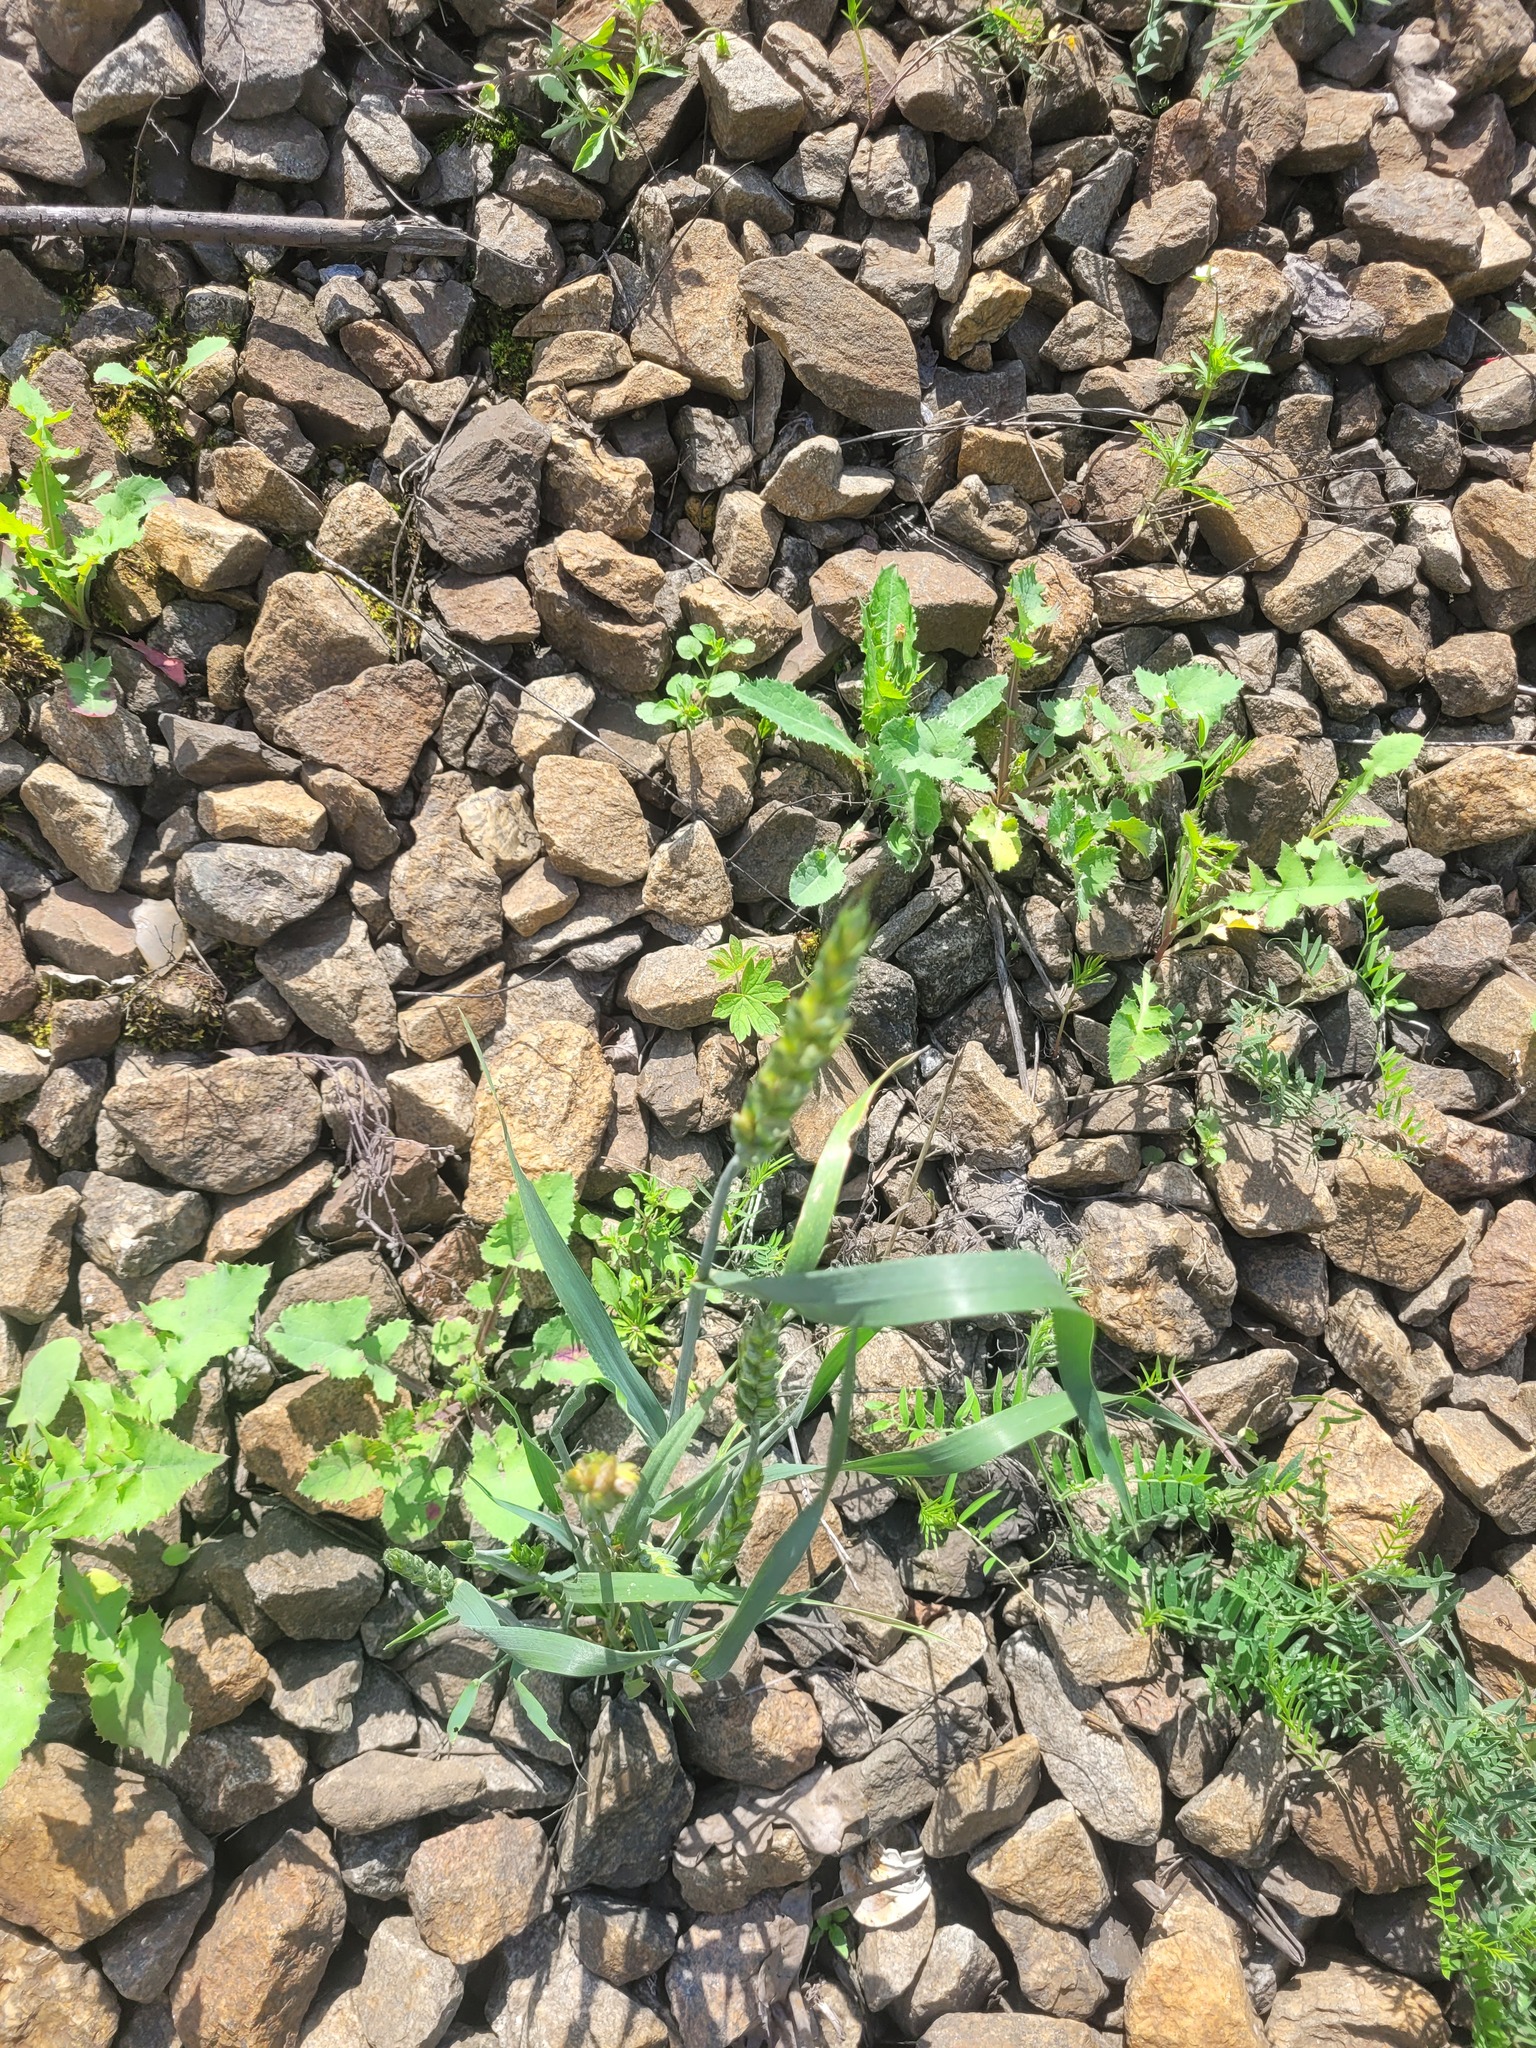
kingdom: Plantae
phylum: Tracheophyta
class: Liliopsida
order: Poales
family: Poaceae
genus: Triticum
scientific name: Triticum aestivum
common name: Common wheat
